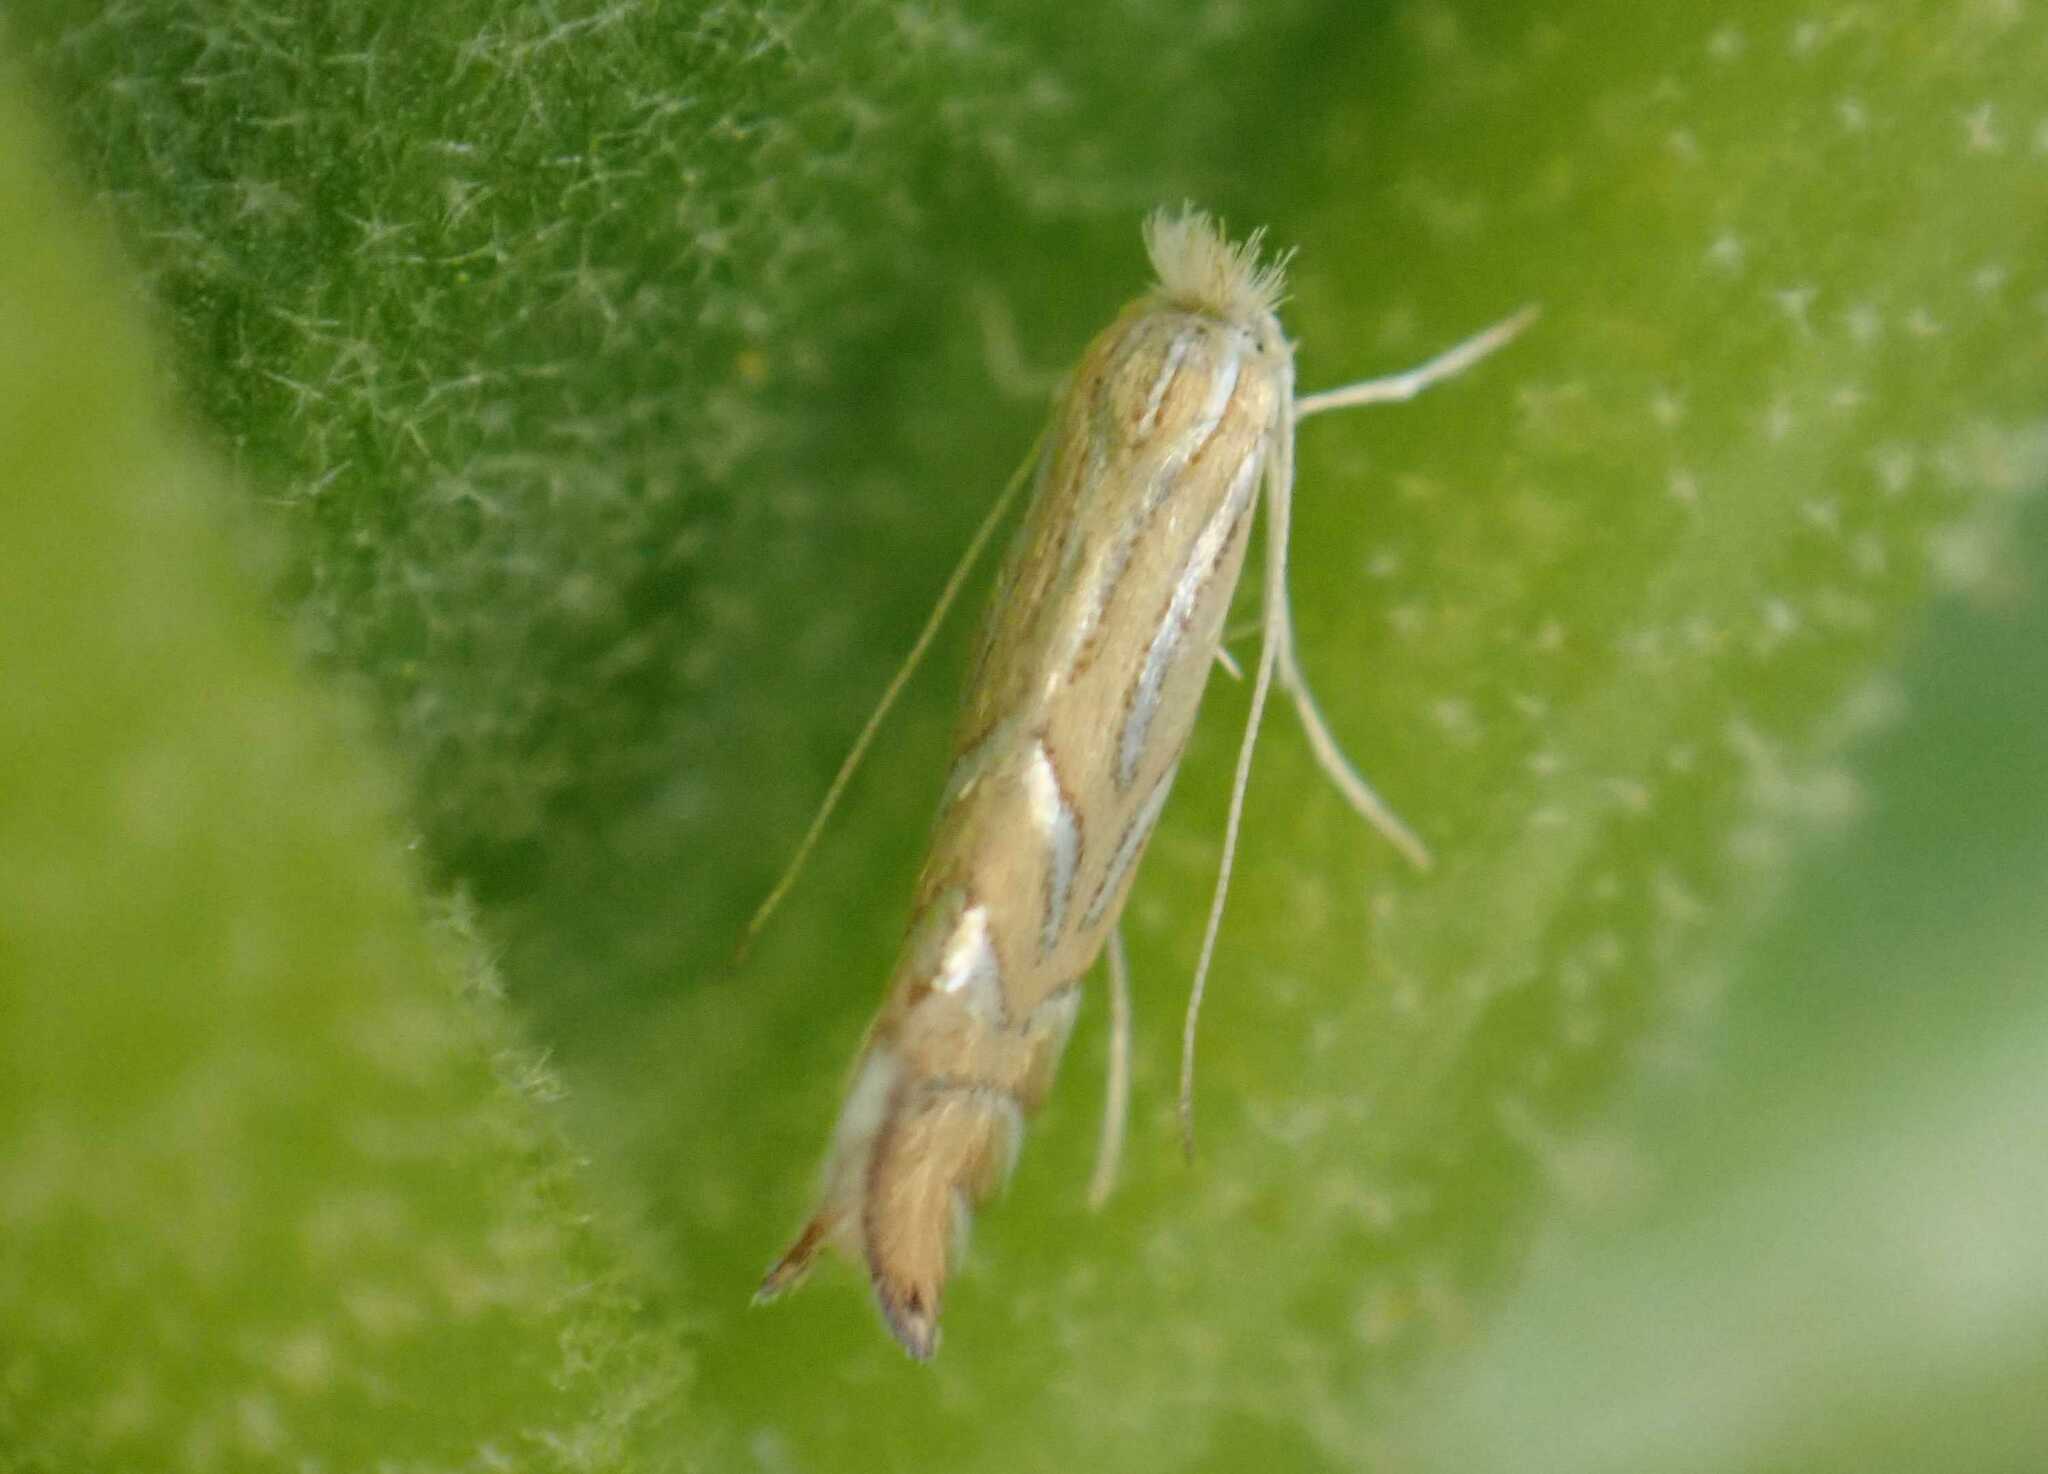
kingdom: Animalia
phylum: Arthropoda
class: Insecta
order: Lepidoptera
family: Gracillariidae
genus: Phyllonorycter
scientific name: Phyllonorycter platani
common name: London midget
